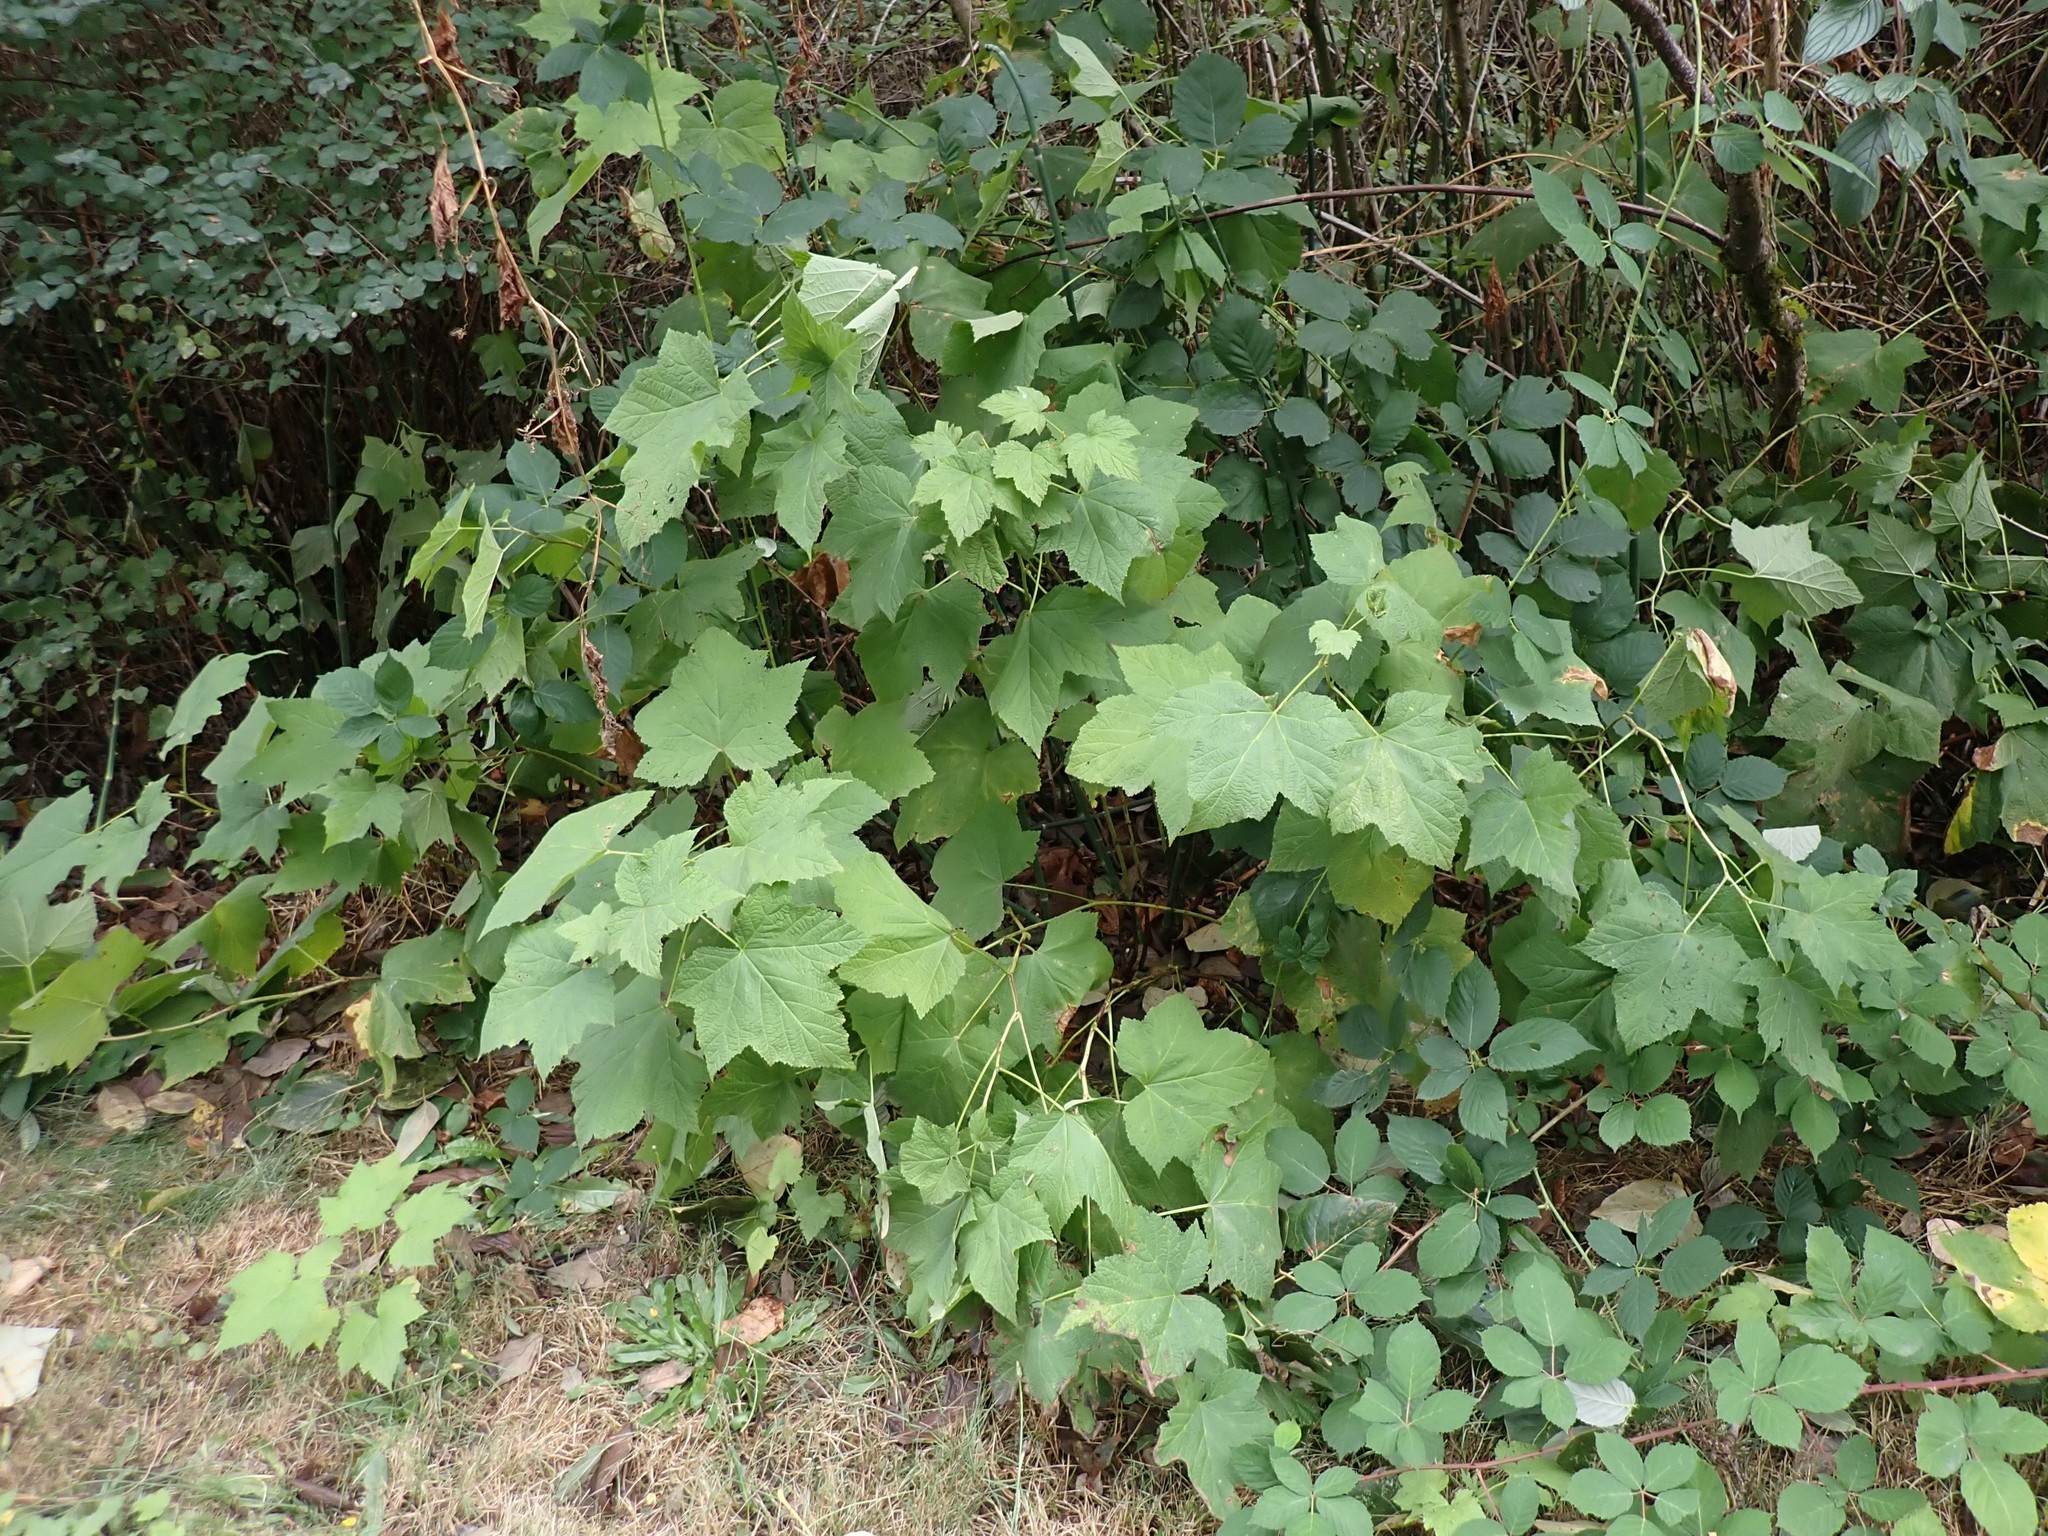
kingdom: Plantae
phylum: Tracheophyta
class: Magnoliopsida
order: Rosales
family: Rosaceae
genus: Rubus
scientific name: Rubus parviflorus
